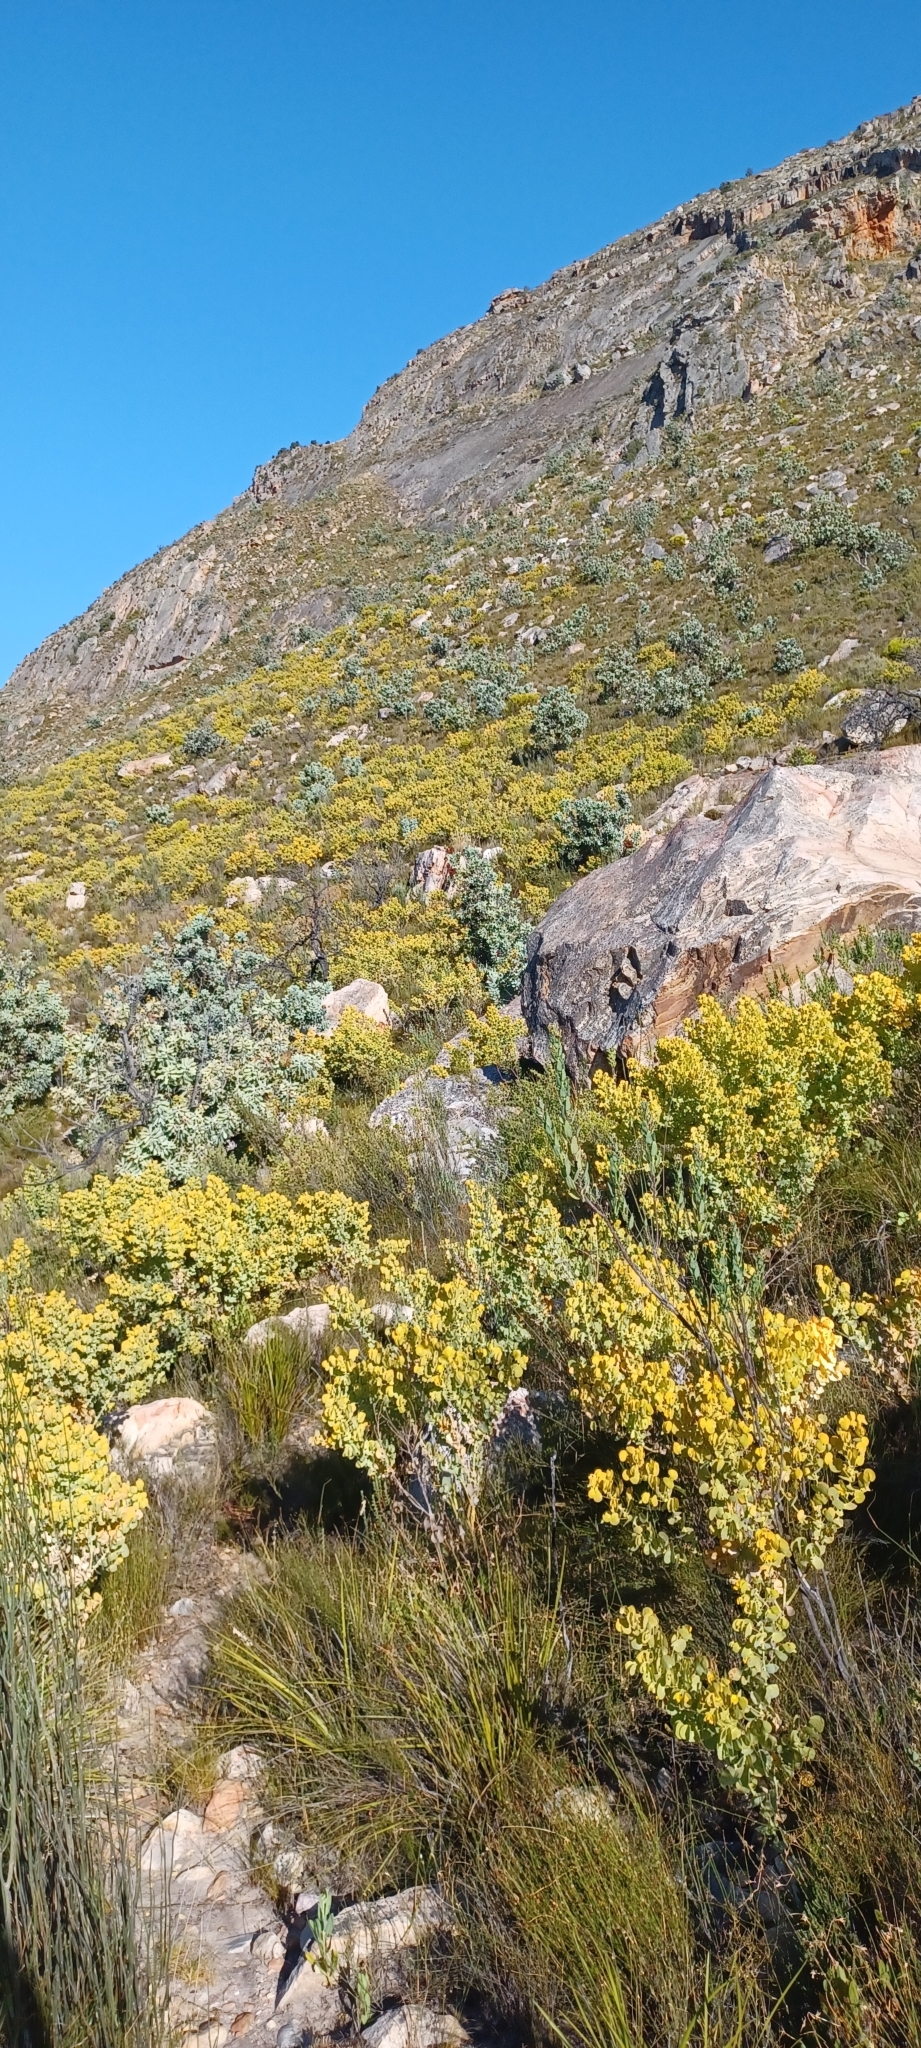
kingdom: Plantae
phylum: Tracheophyta
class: Magnoliopsida
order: Proteales
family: Proteaceae
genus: Protea
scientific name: Protea nitida
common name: Tree protea
